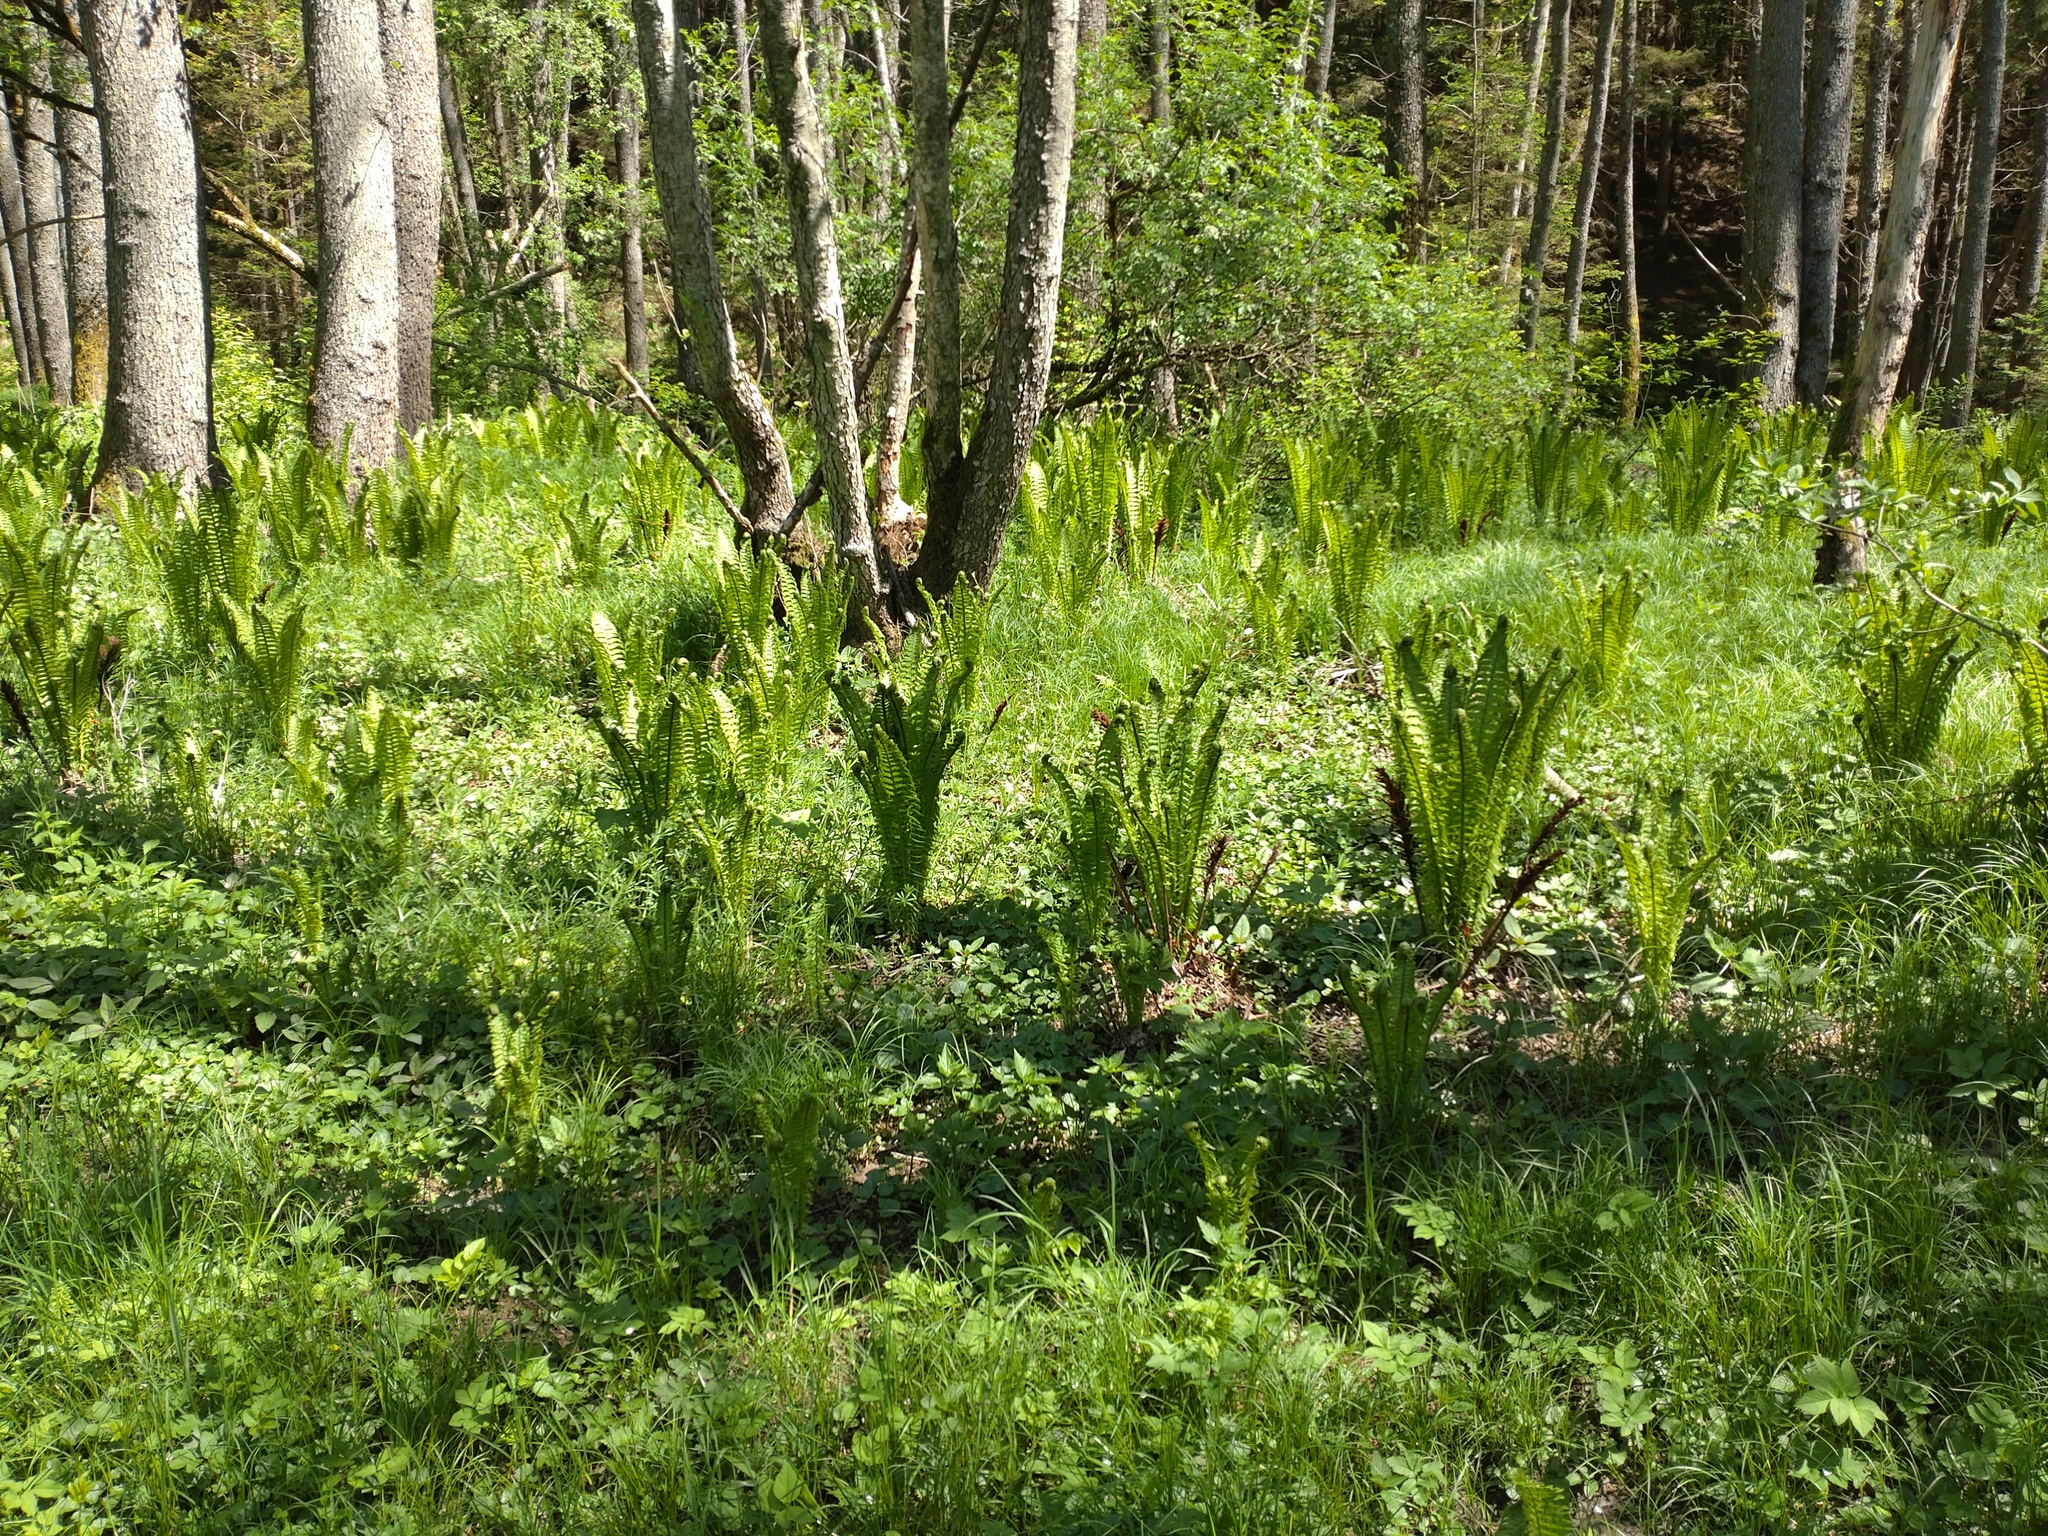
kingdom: Plantae
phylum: Tracheophyta
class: Polypodiopsida
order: Polypodiales
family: Onocleaceae
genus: Matteuccia
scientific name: Matteuccia struthiopteris
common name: Ostrich fern
